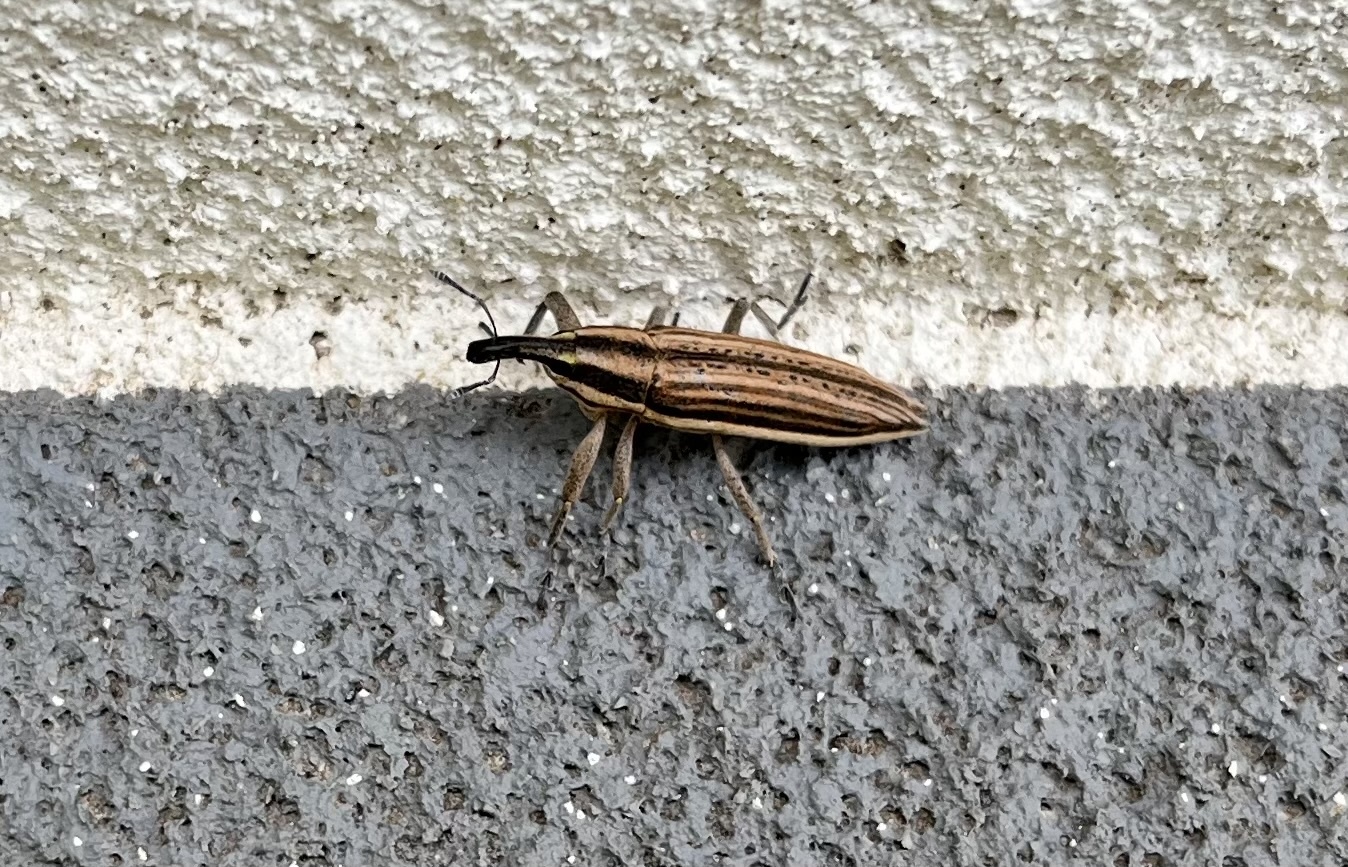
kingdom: Animalia
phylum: Arthropoda
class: Insecta
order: Coleoptera
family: Curculionidae
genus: Lixus
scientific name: Lixus anguinus
